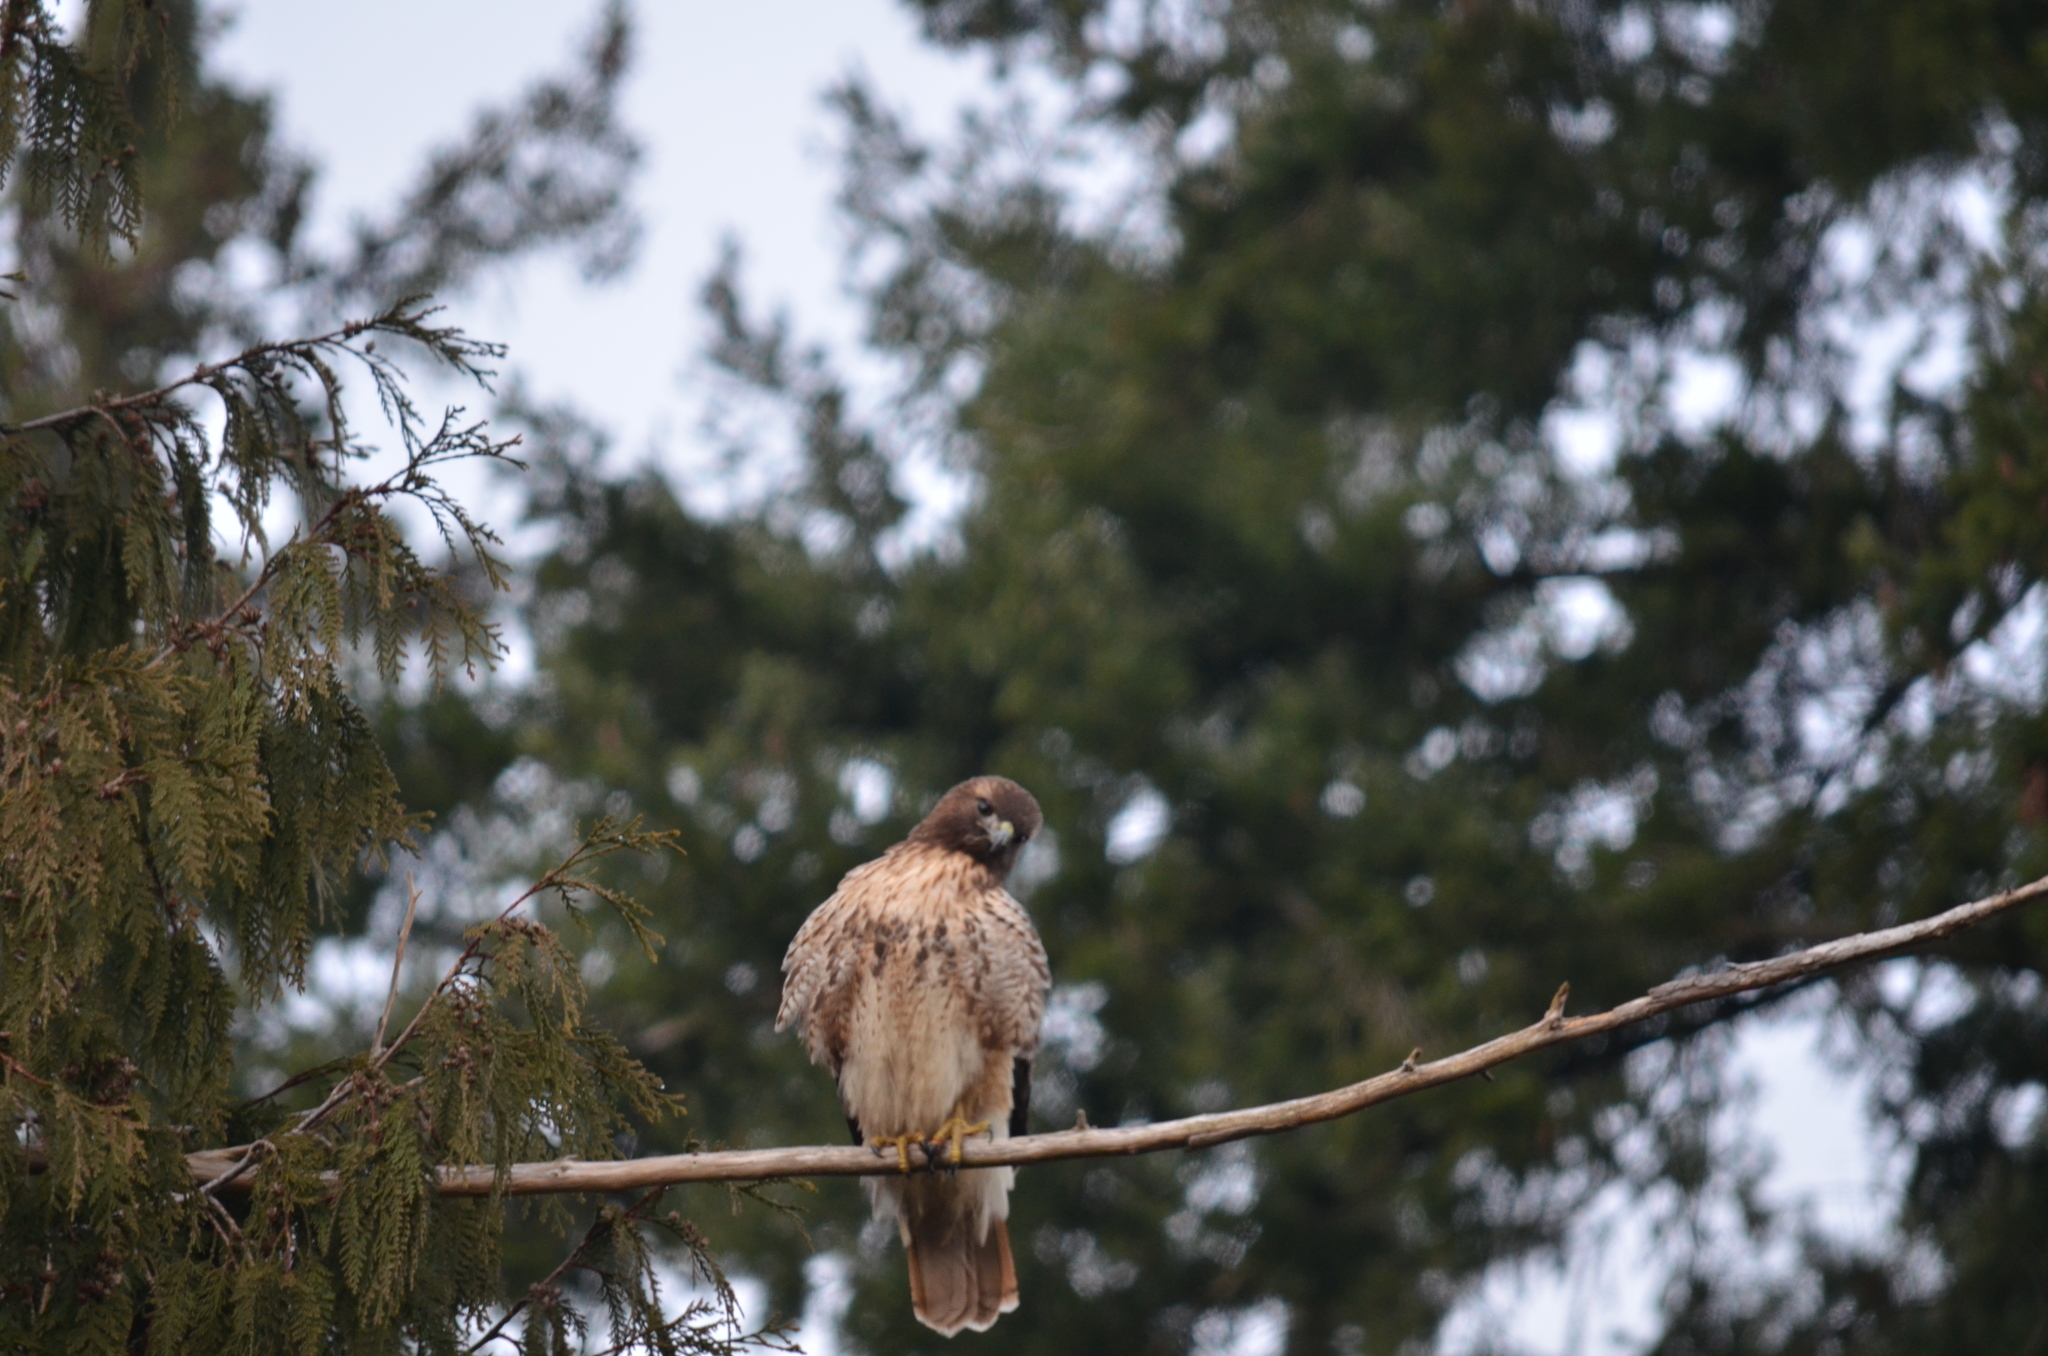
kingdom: Animalia
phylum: Chordata
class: Aves
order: Accipitriformes
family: Accipitridae
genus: Buteo
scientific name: Buteo jamaicensis
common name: Red-tailed hawk
